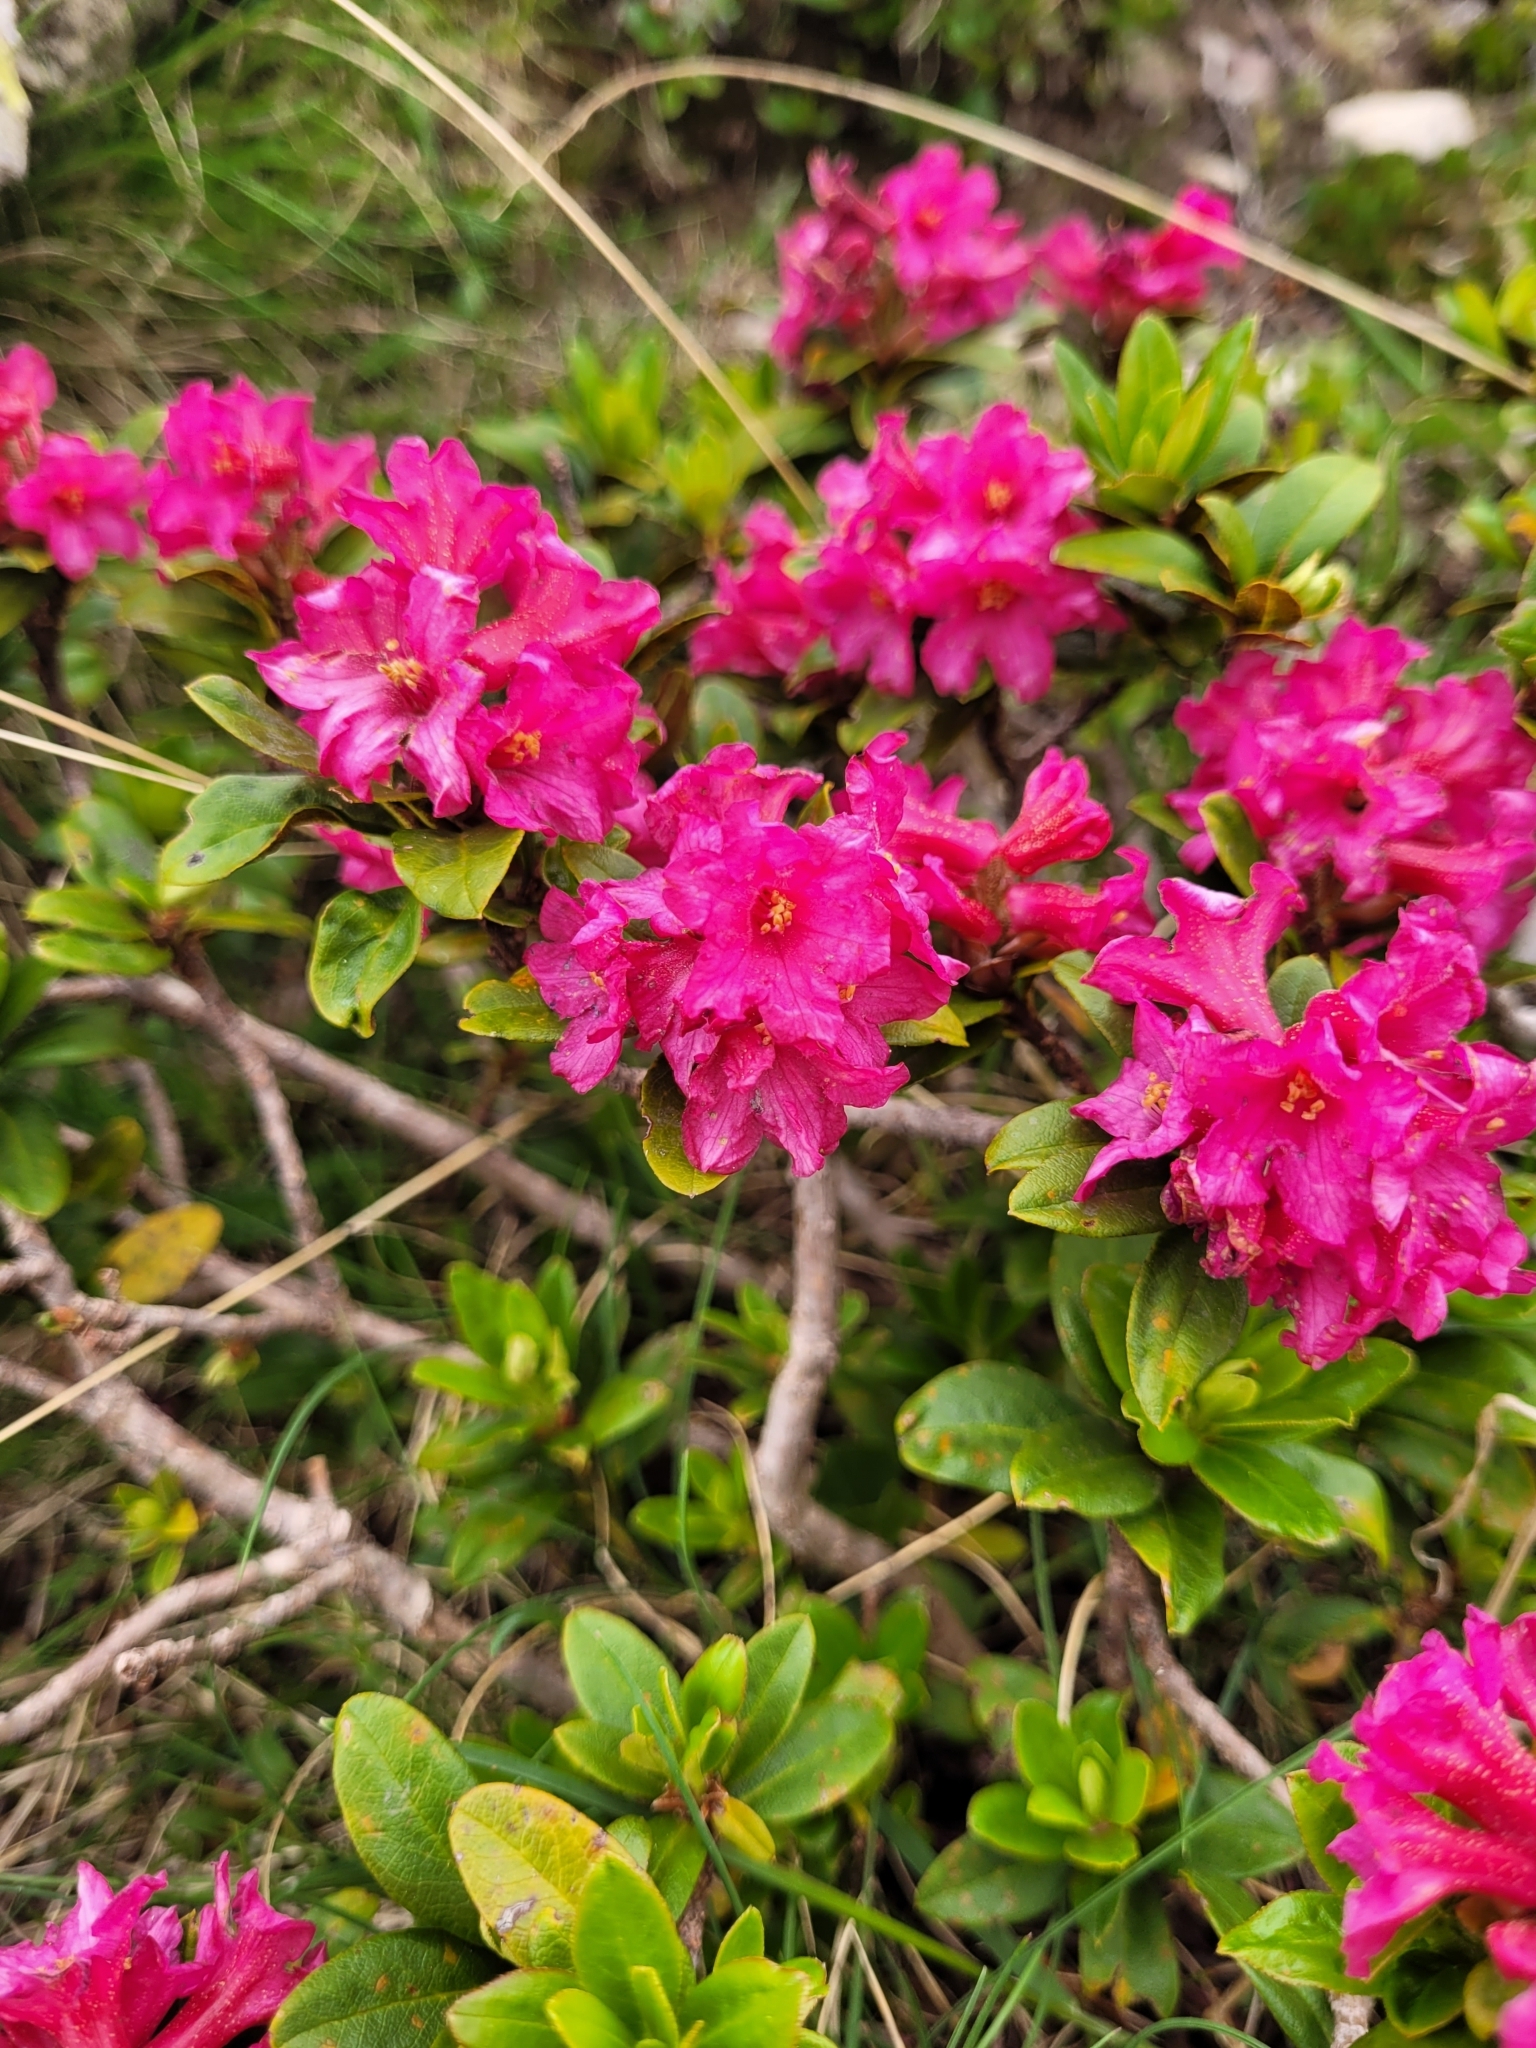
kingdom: Plantae
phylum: Tracheophyta
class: Magnoliopsida
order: Ericales
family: Ericaceae
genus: Rhododendron
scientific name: Rhododendron ferrugineum
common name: Alpenrose
